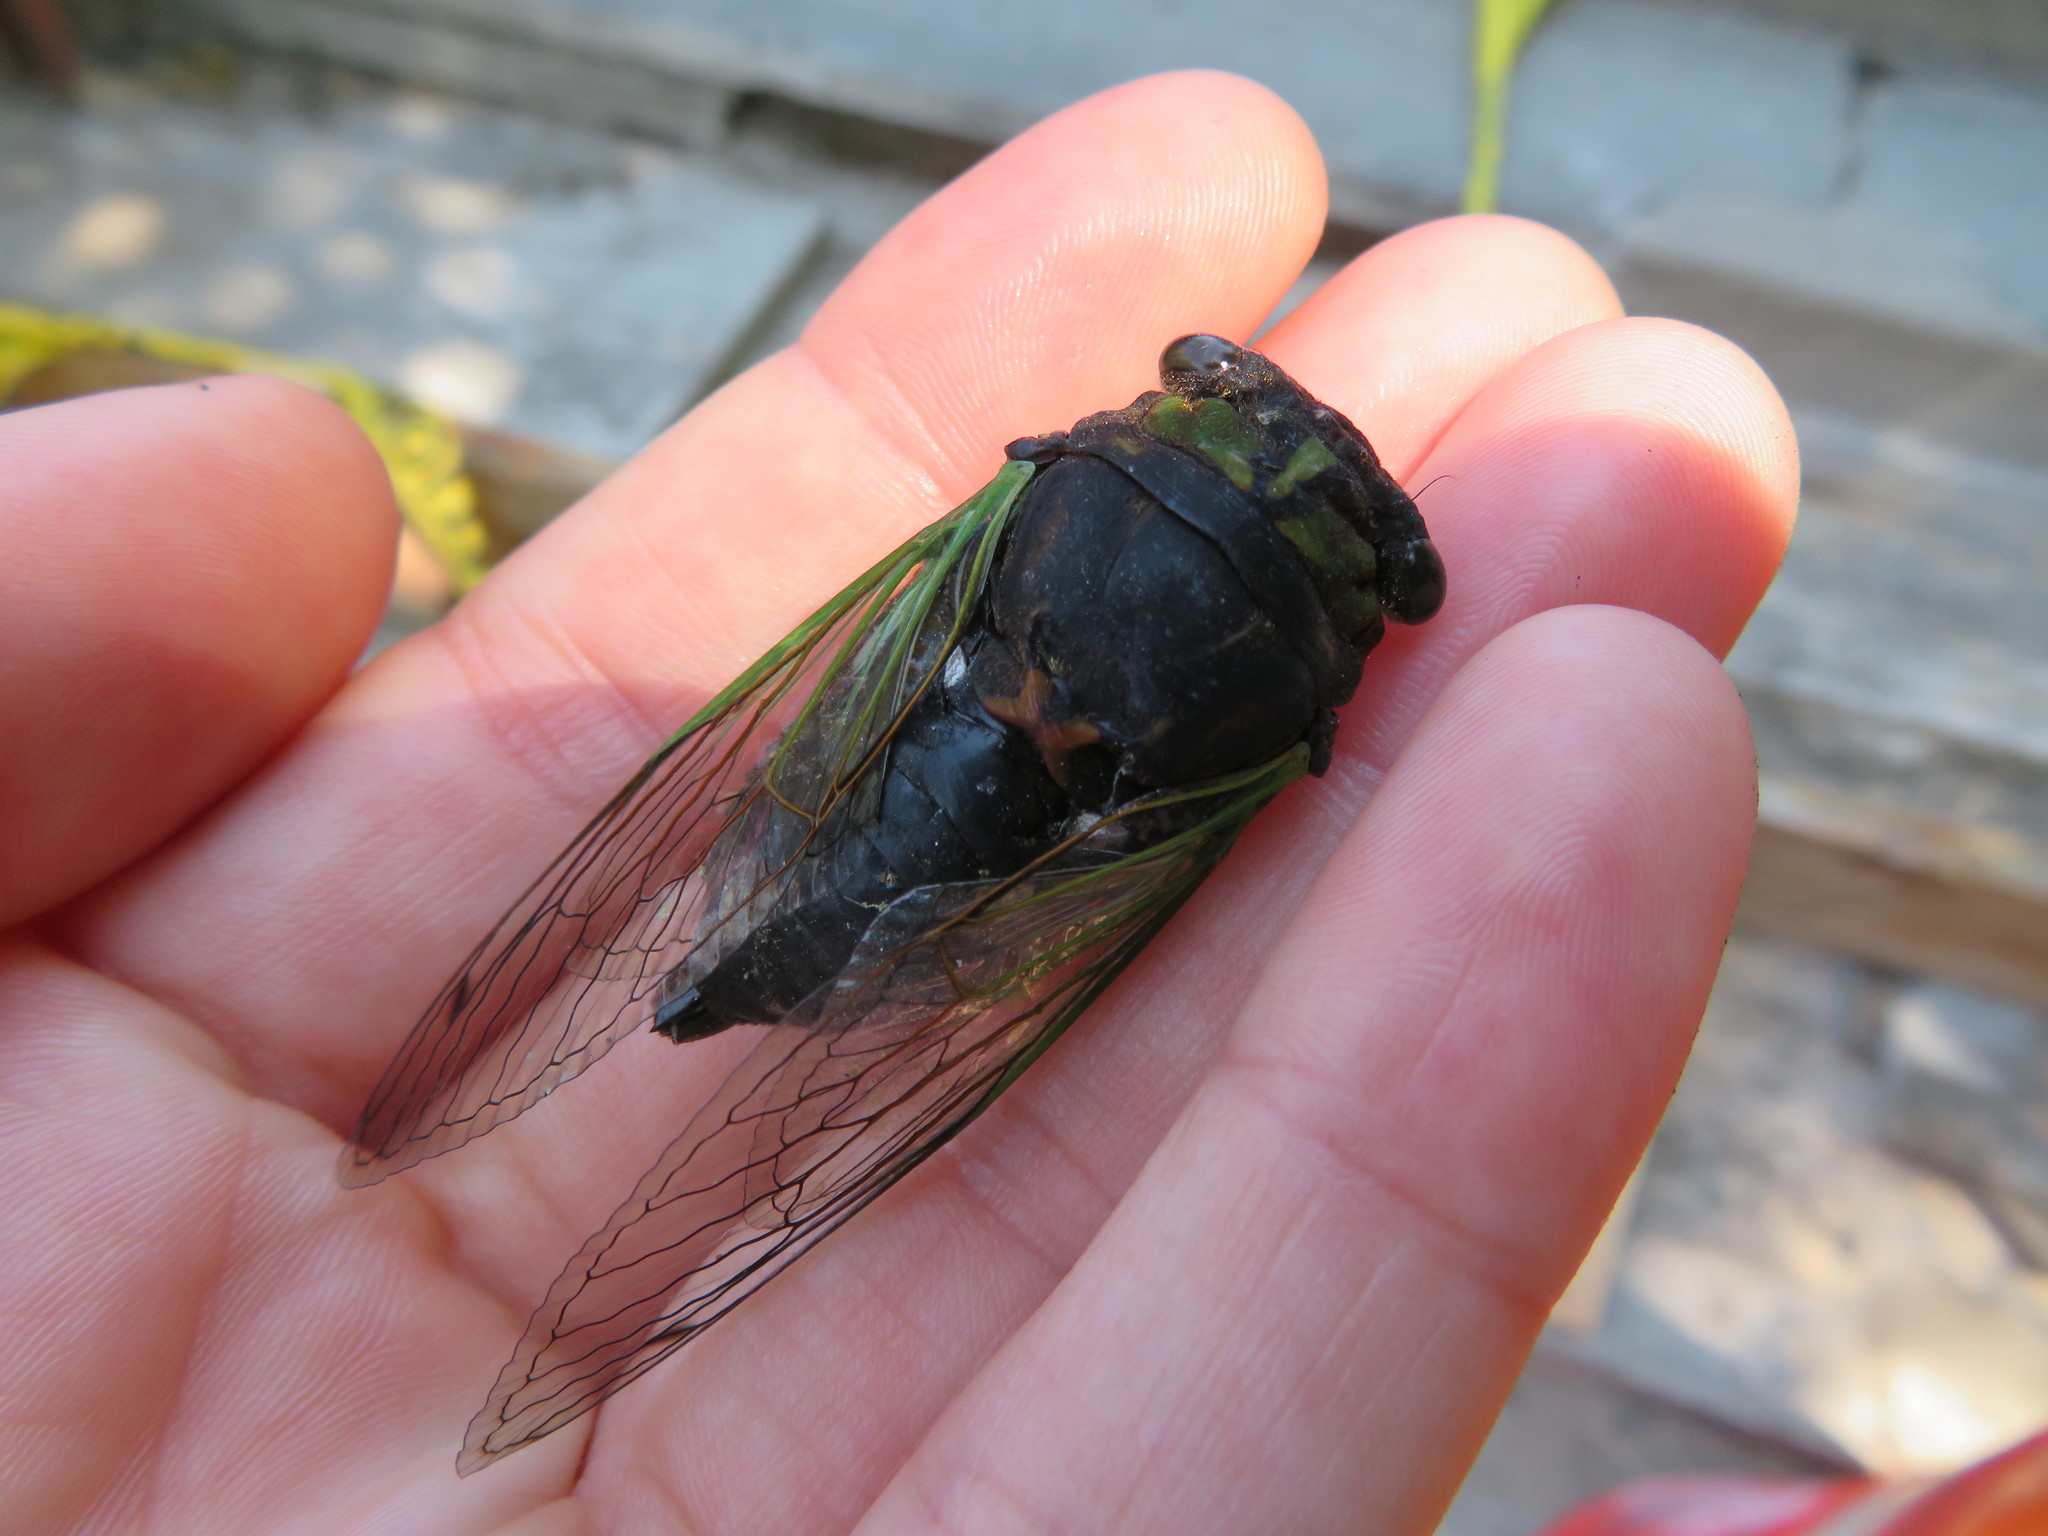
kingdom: Animalia
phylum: Arthropoda
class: Insecta
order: Hemiptera
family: Cicadidae
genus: Neotibicen
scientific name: Neotibicen tibicen
